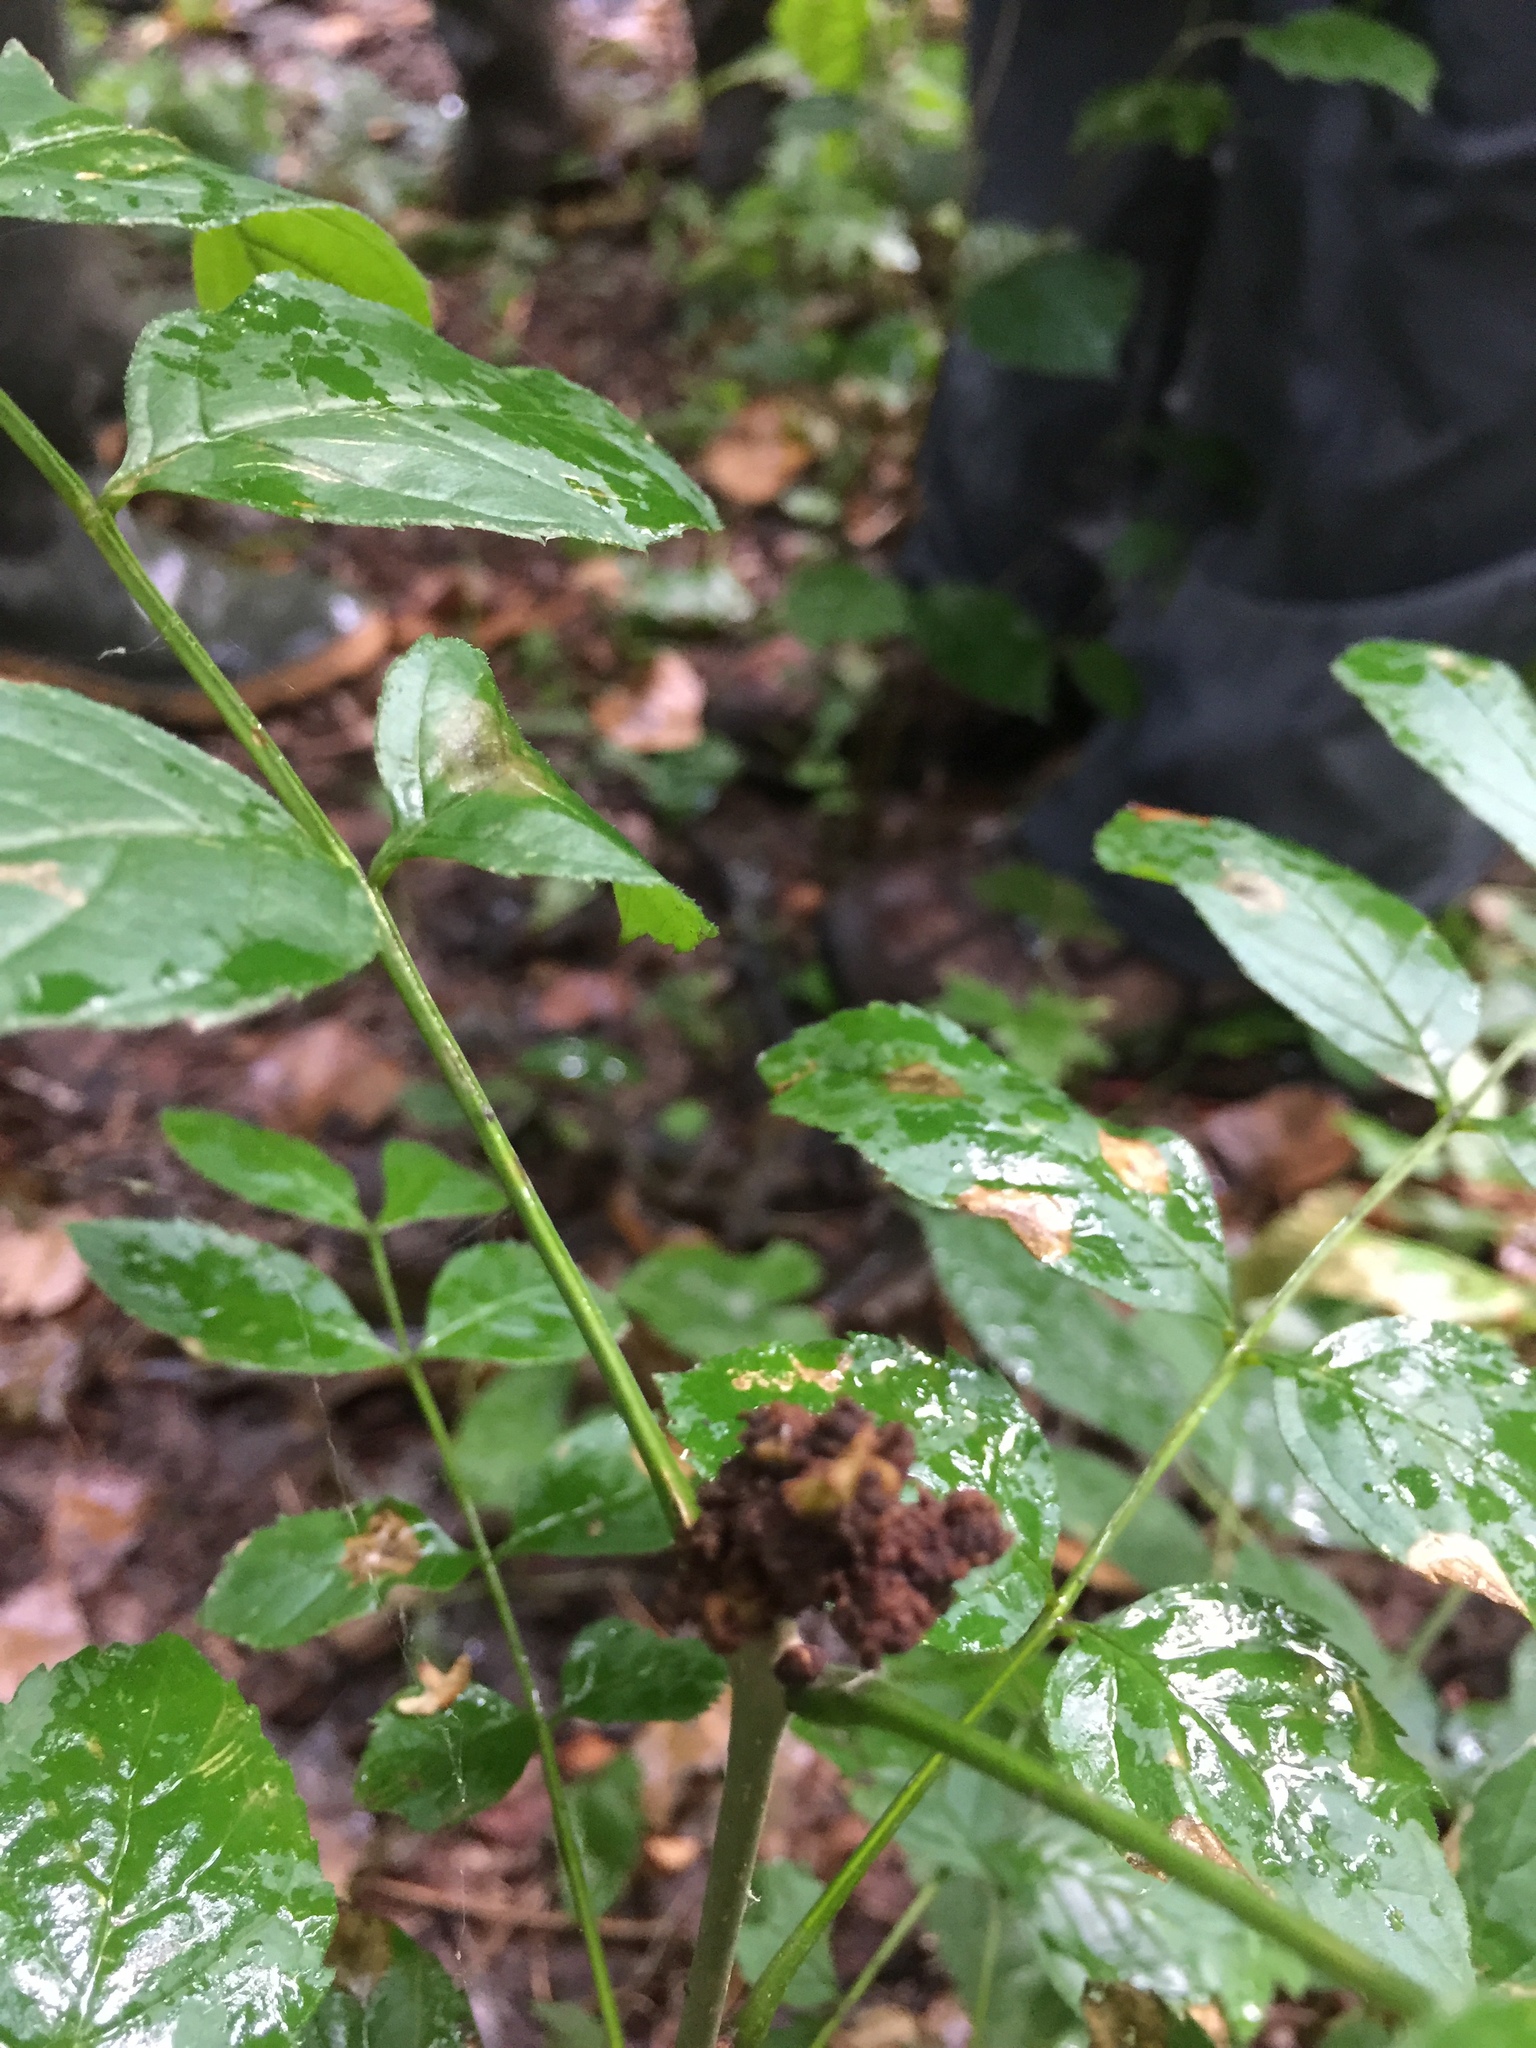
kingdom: Animalia
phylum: Arthropoda
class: Arachnida
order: Trombidiformes
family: Eriophyidae
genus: Aceria
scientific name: Aceria fraxinivora
